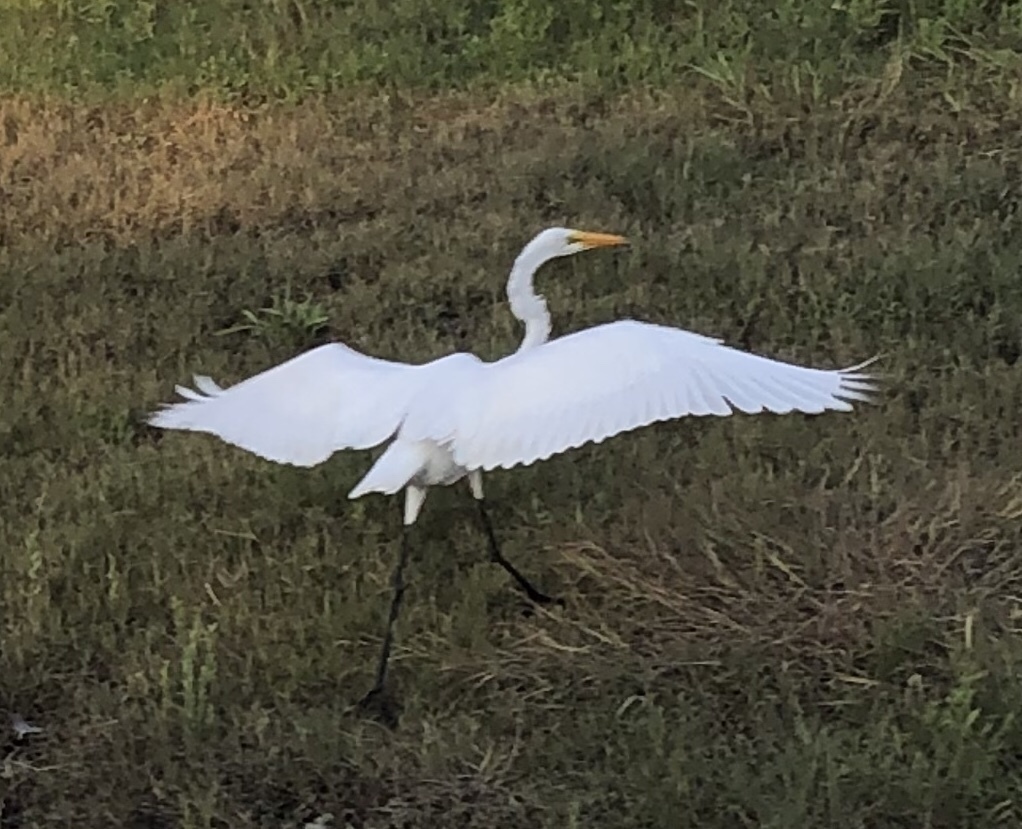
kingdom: Animalia
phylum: Chordata
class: Aves
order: Pelecaniformes
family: Ardeidae
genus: Ardea
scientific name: Ardea alba
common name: Great egret
